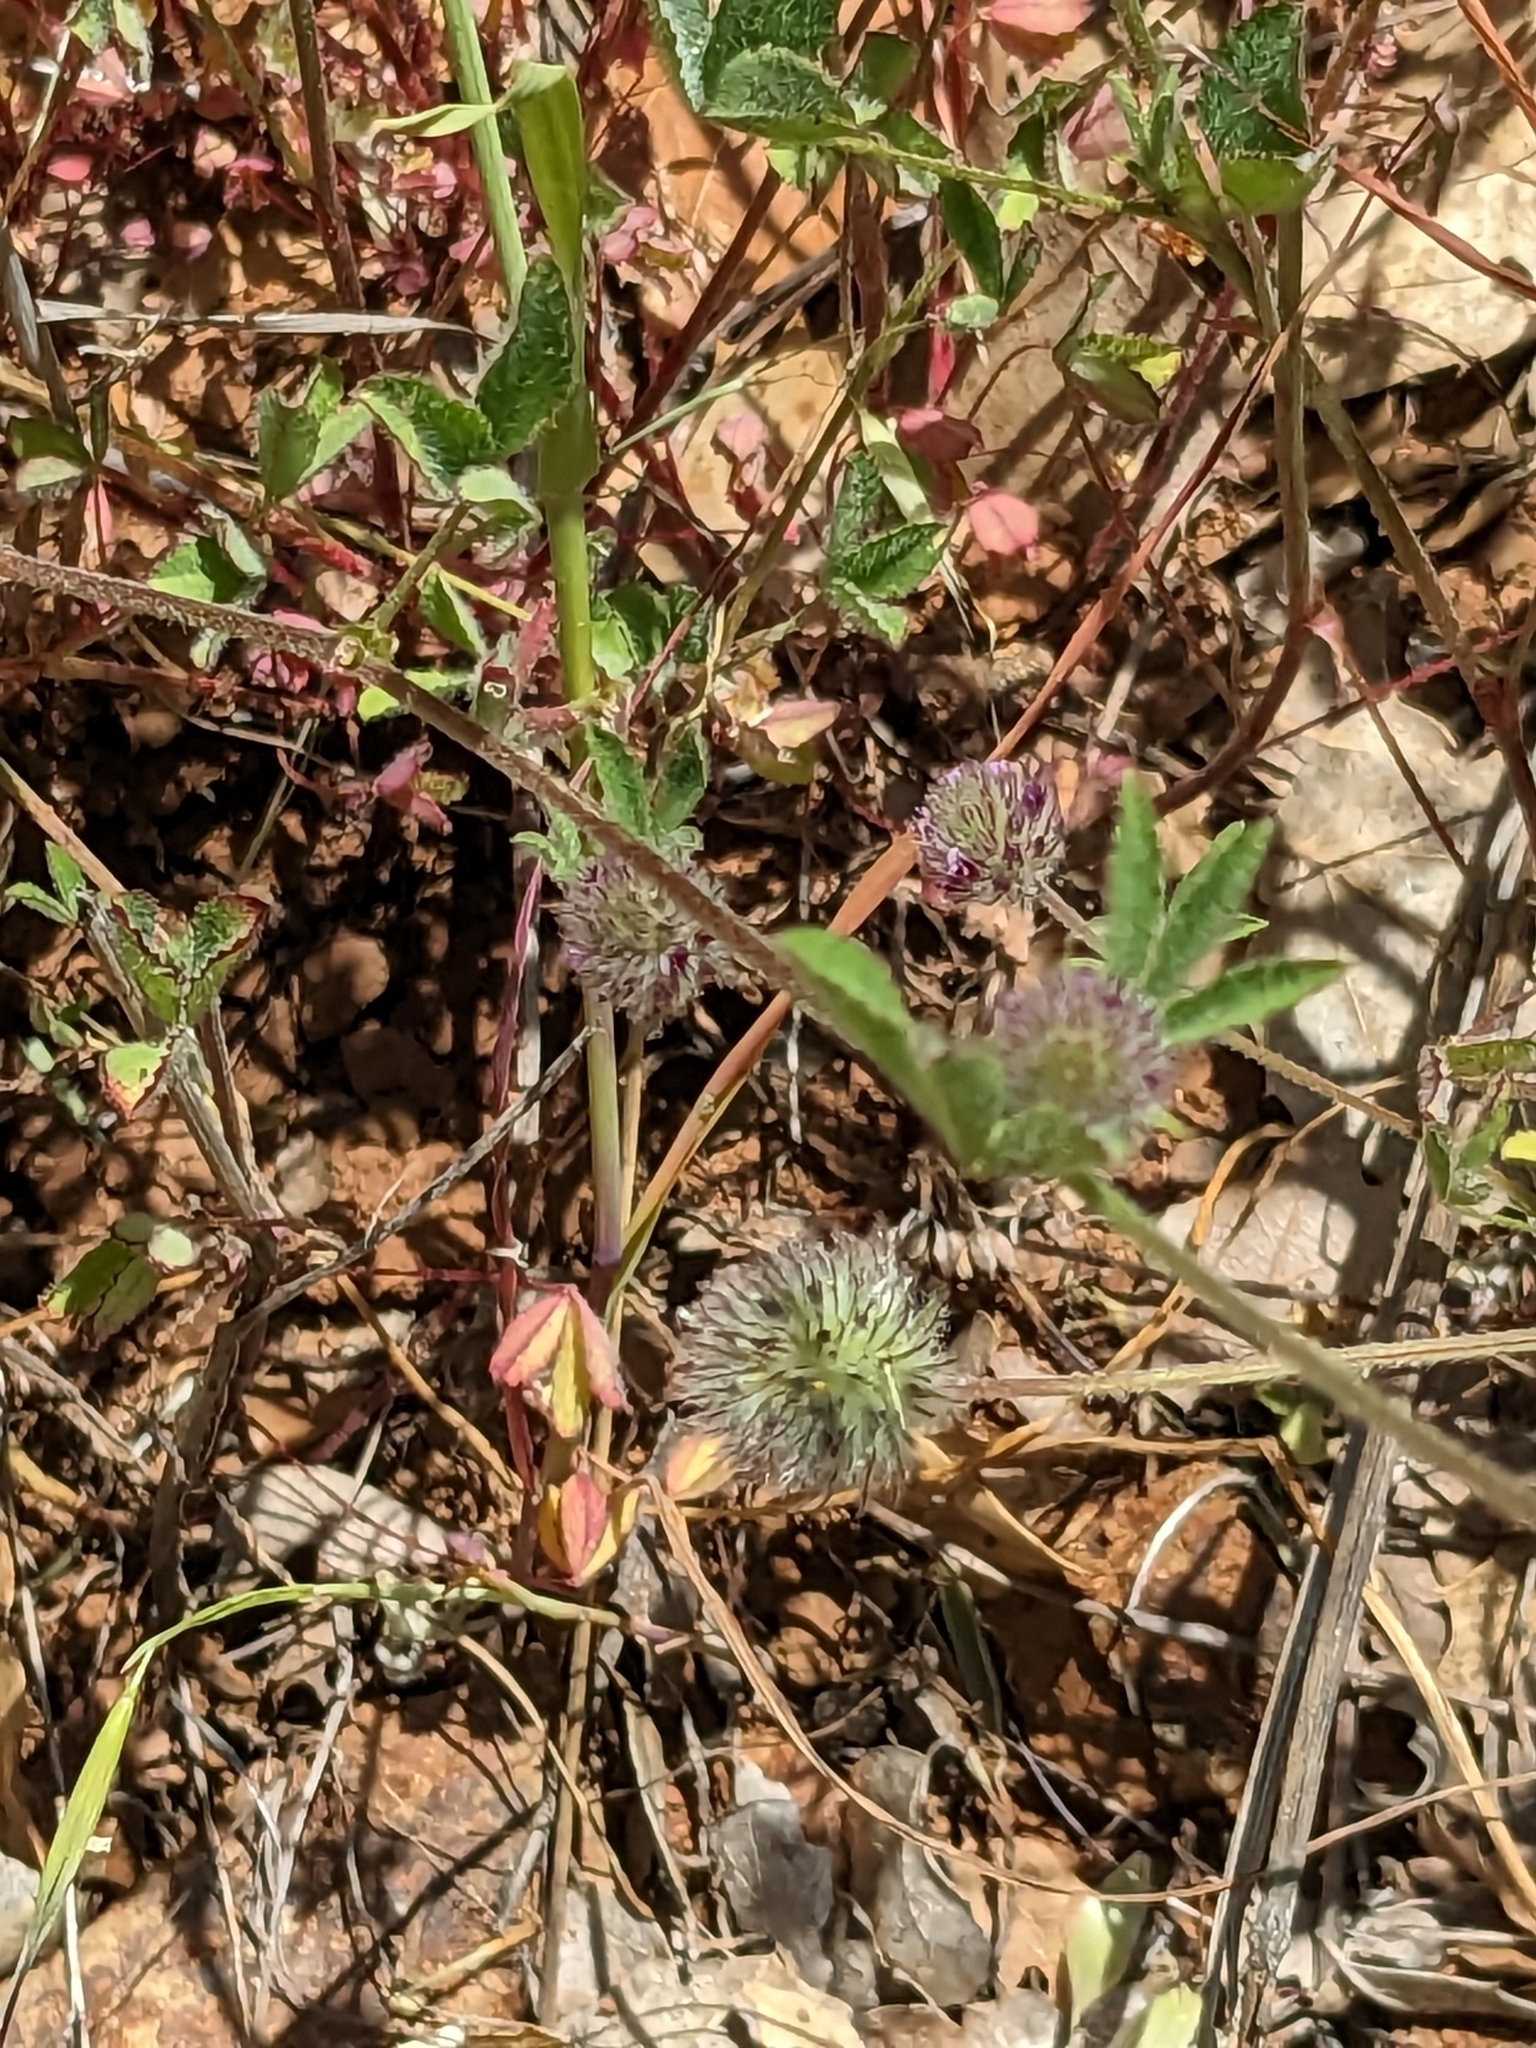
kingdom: Plantae
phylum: Tracheophyta
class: Magnoliopsida
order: Fabales
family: Fabaceae
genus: Trifolium
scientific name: Trifolium albopurpureum
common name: Rancheria clover
